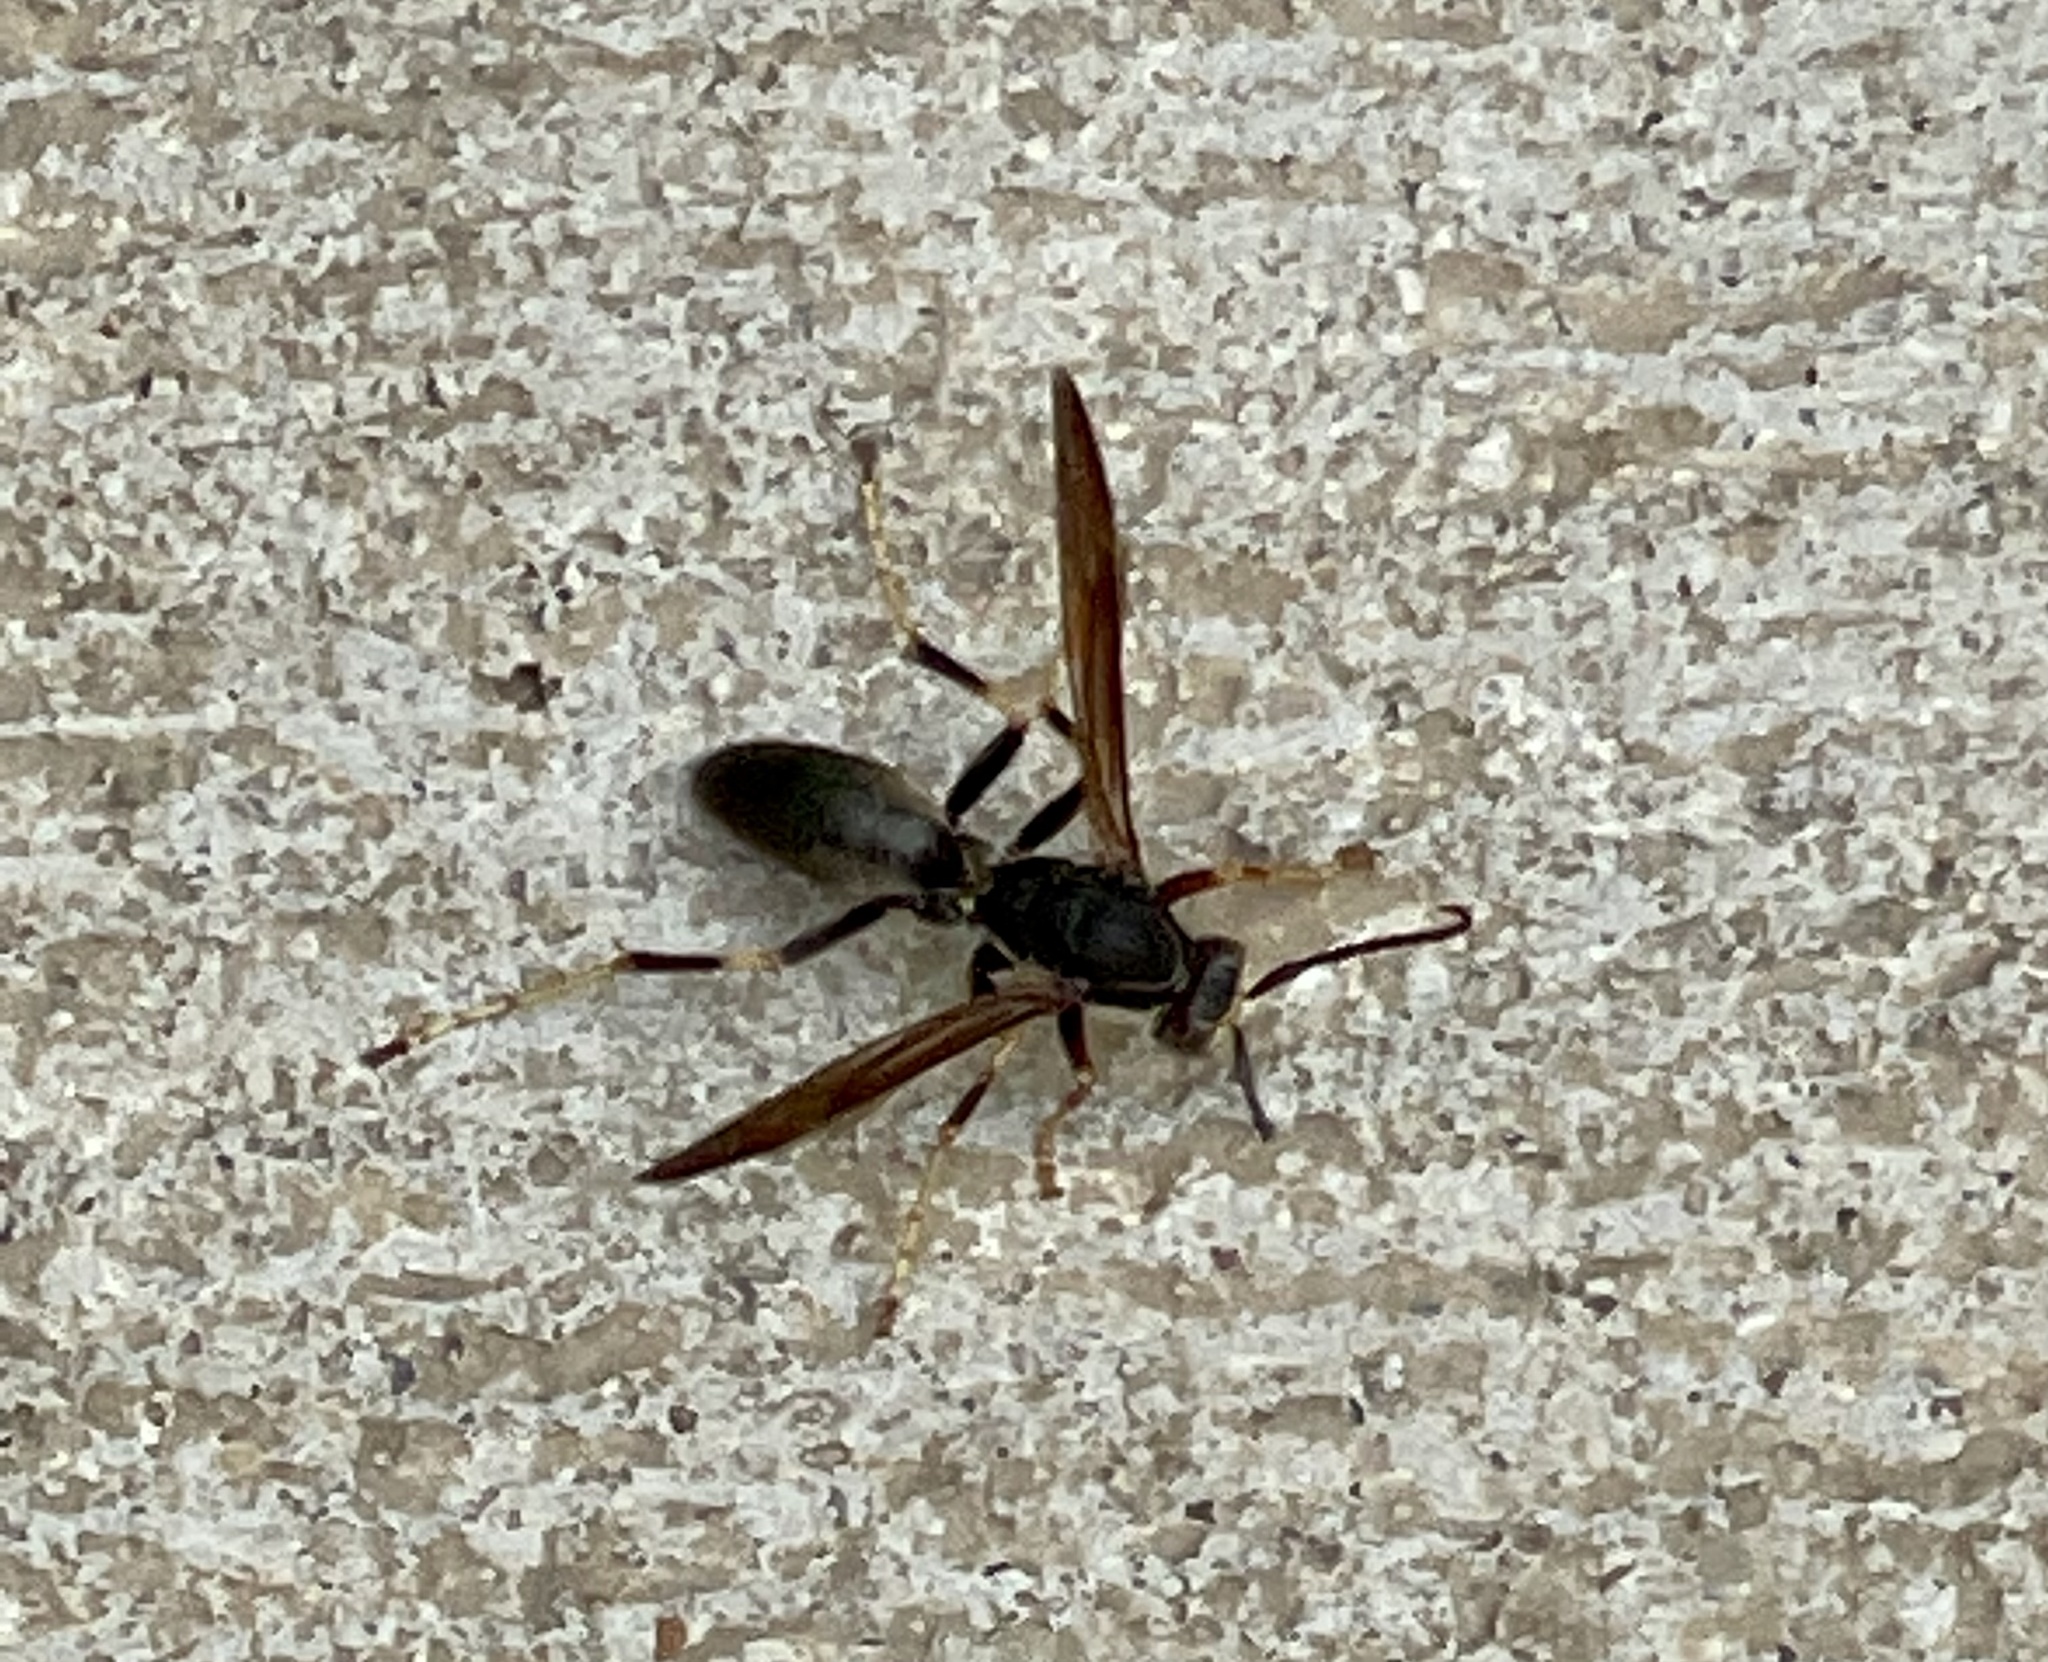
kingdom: Animalia
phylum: Arthropoda
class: Insecta
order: Hymenoptera
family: Vespidae
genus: Fuscopolistes
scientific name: Fuscopolistes
